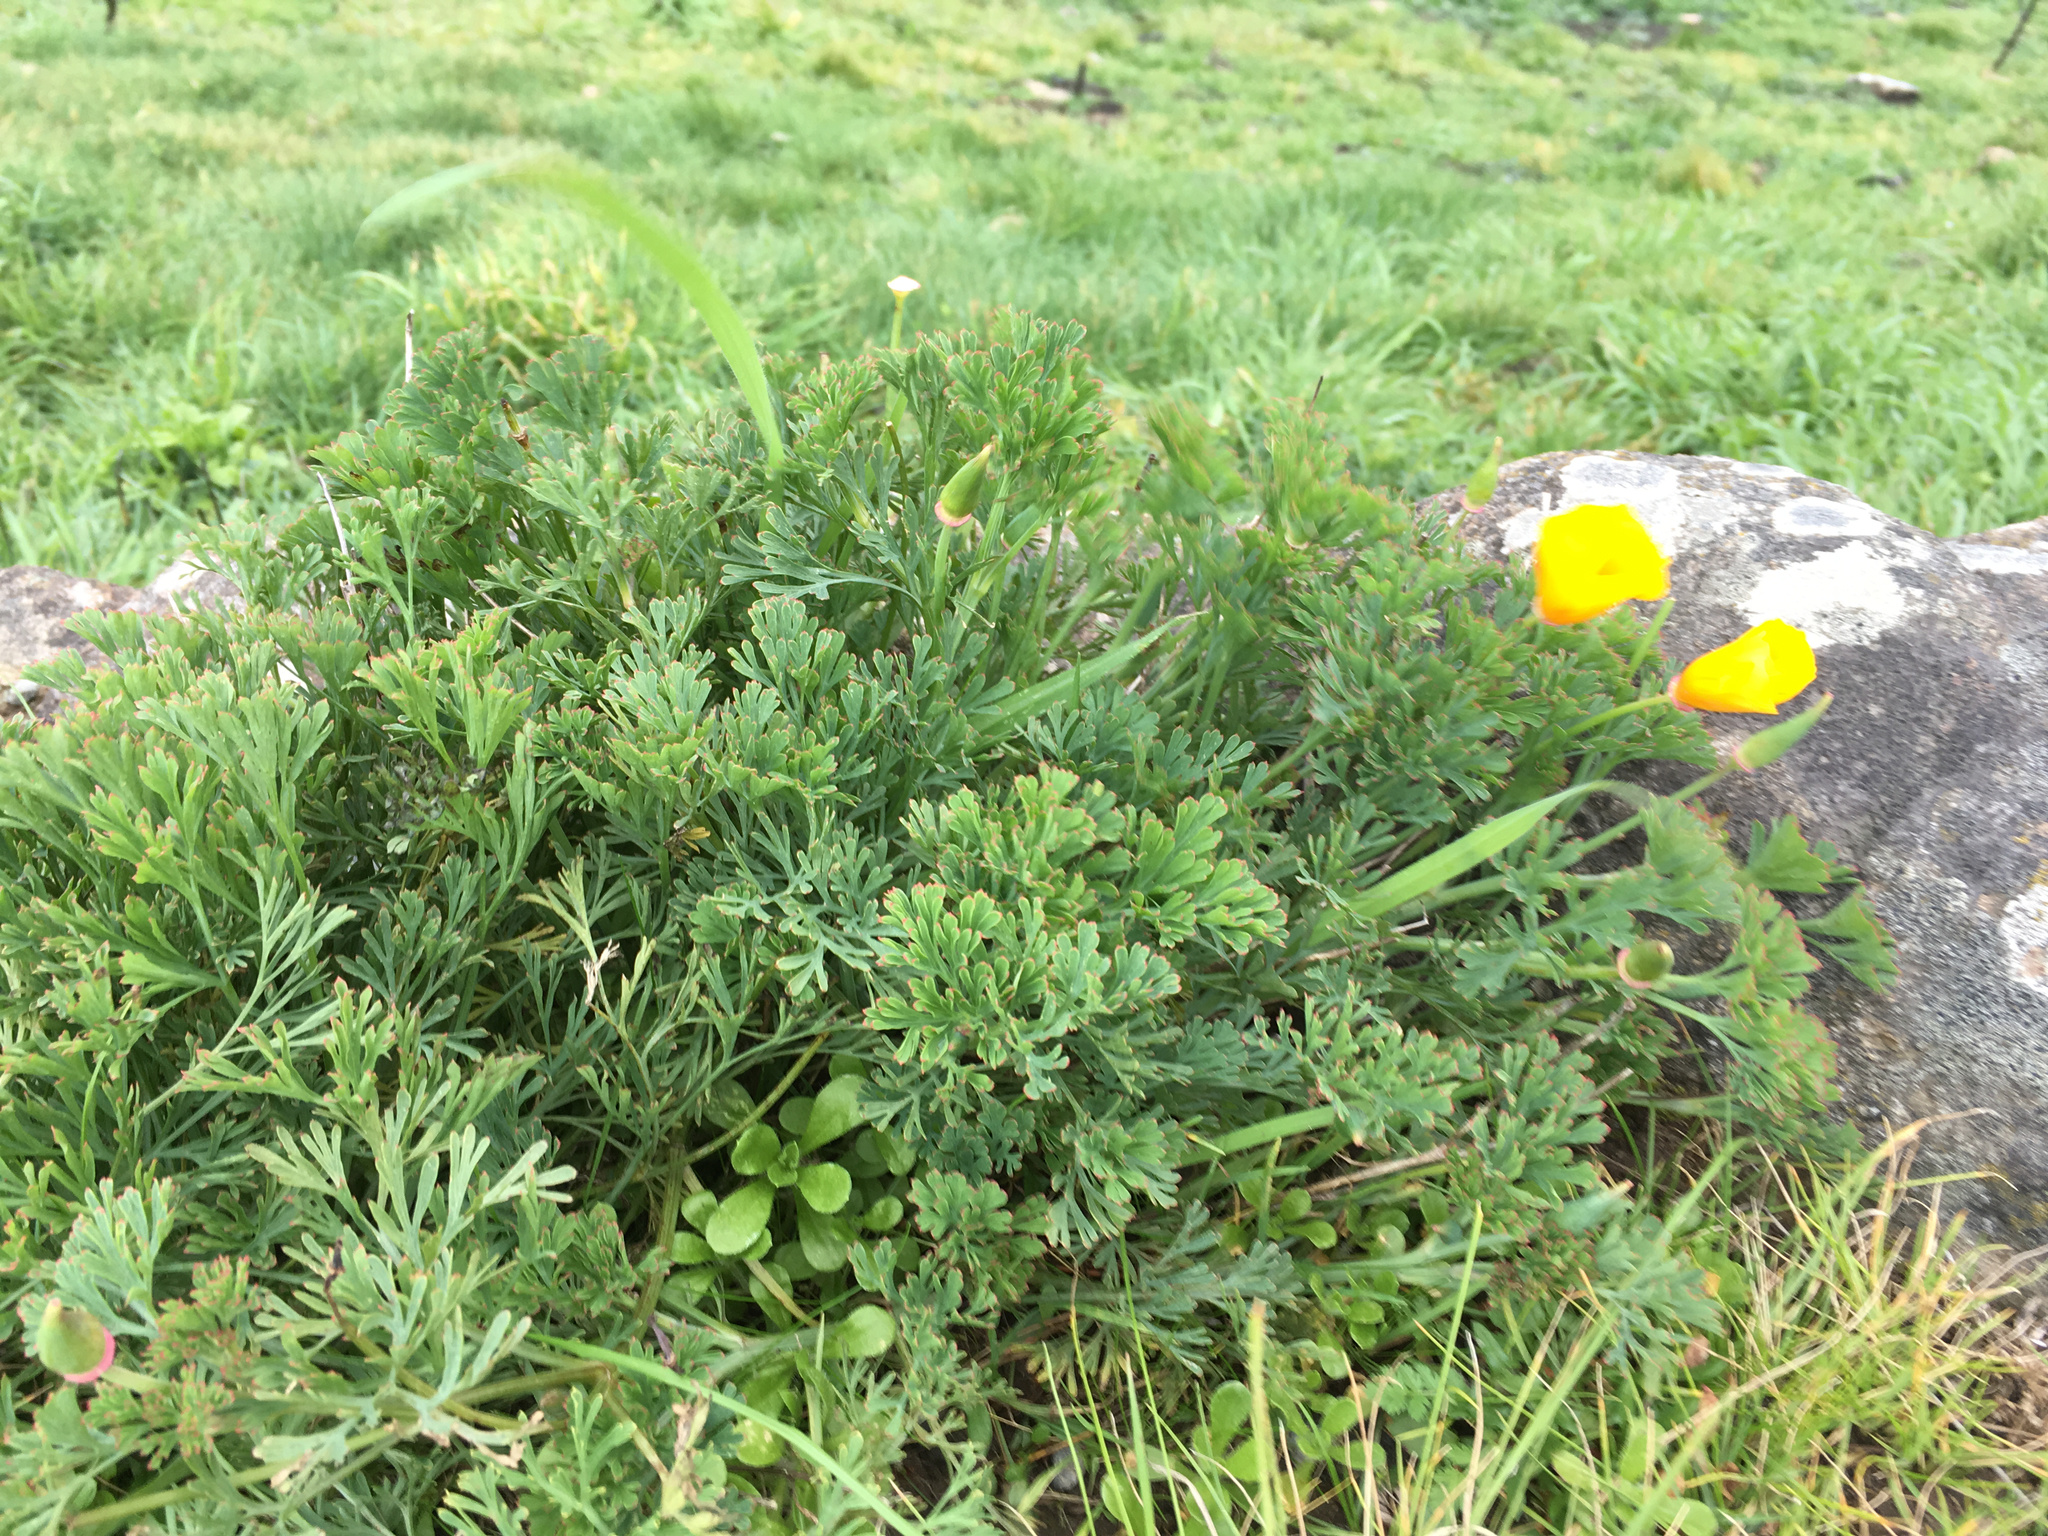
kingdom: Plantae
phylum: Tracheophyta
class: Magnoliopsida
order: Ranunculales
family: Papaveraceae
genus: Eschscholzia
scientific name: Eschscholzia californica
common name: California poppy
